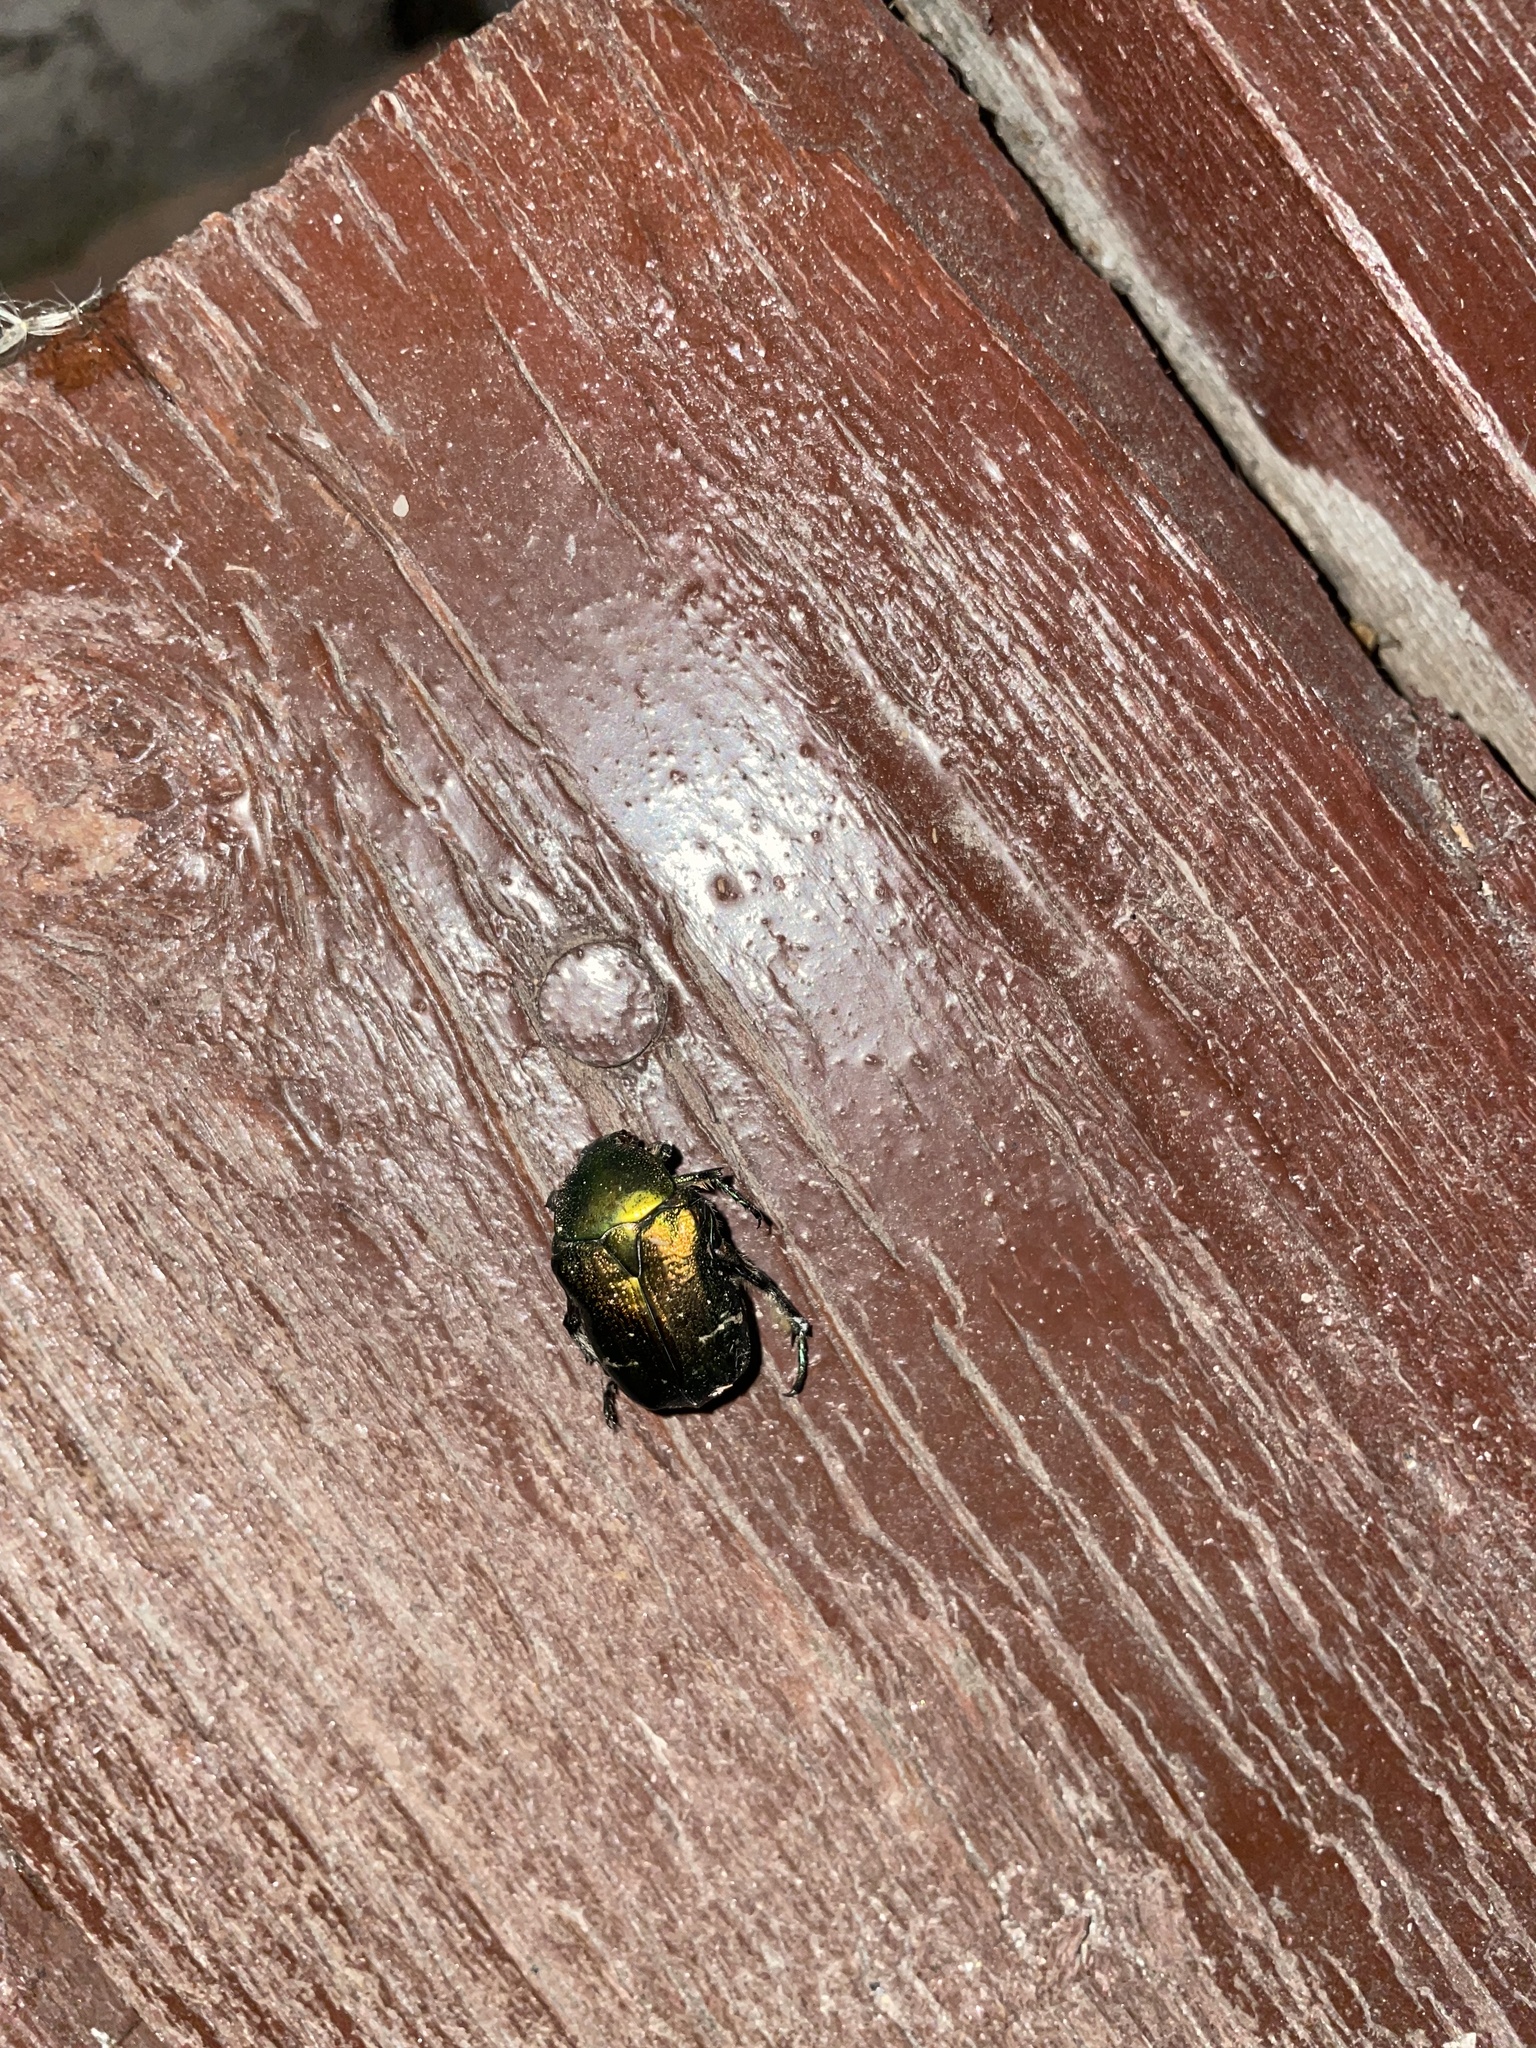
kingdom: Animalia
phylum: Arthropoda
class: Insecta
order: Coleoptera
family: Scarabaeidae
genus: Cetonia
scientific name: Cetonia aurata
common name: Rose chafer
